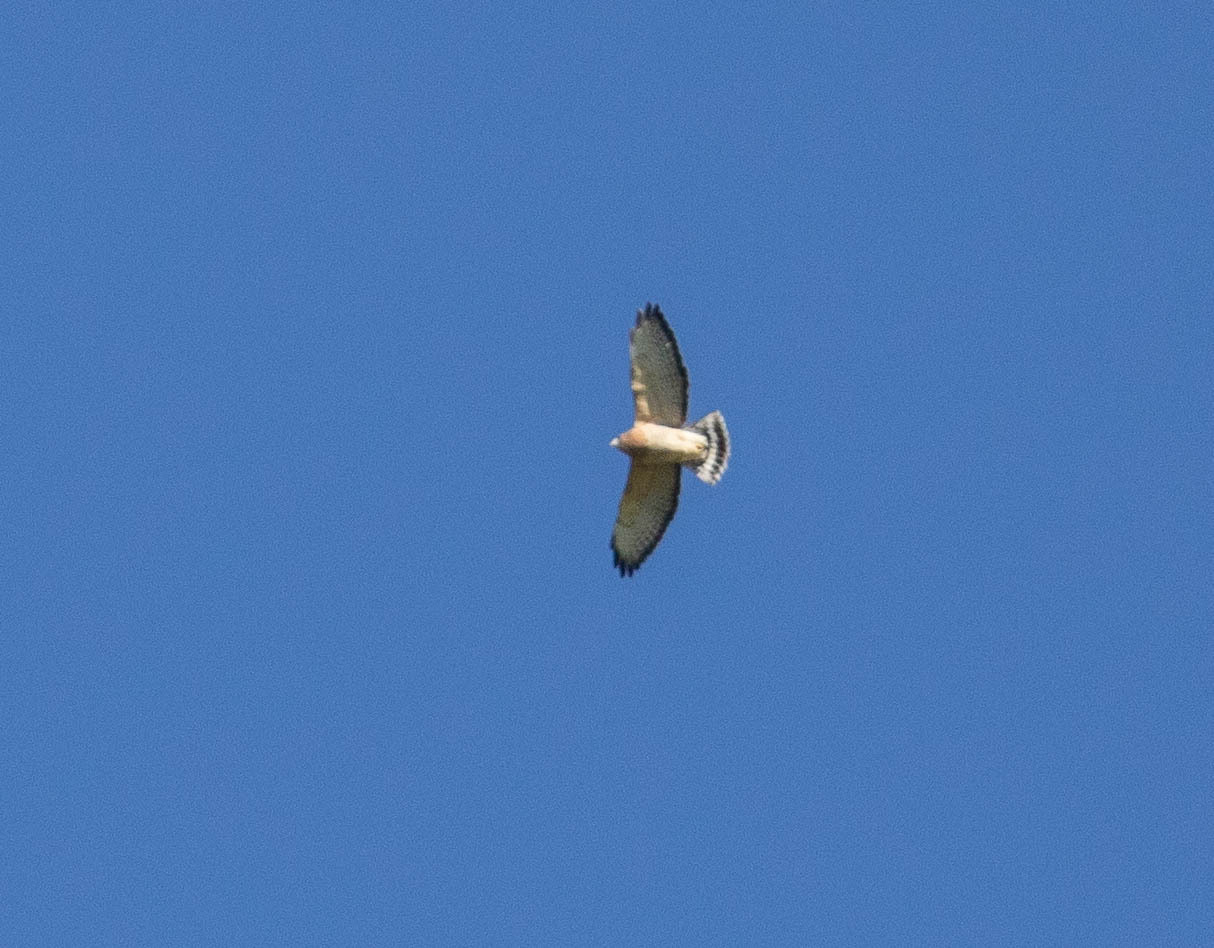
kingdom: Animalia
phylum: Chordata
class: Aves
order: Accipitriformes
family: Accipitridae
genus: Buteo
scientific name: Buteo platypterus
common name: Broad-winged hawk
